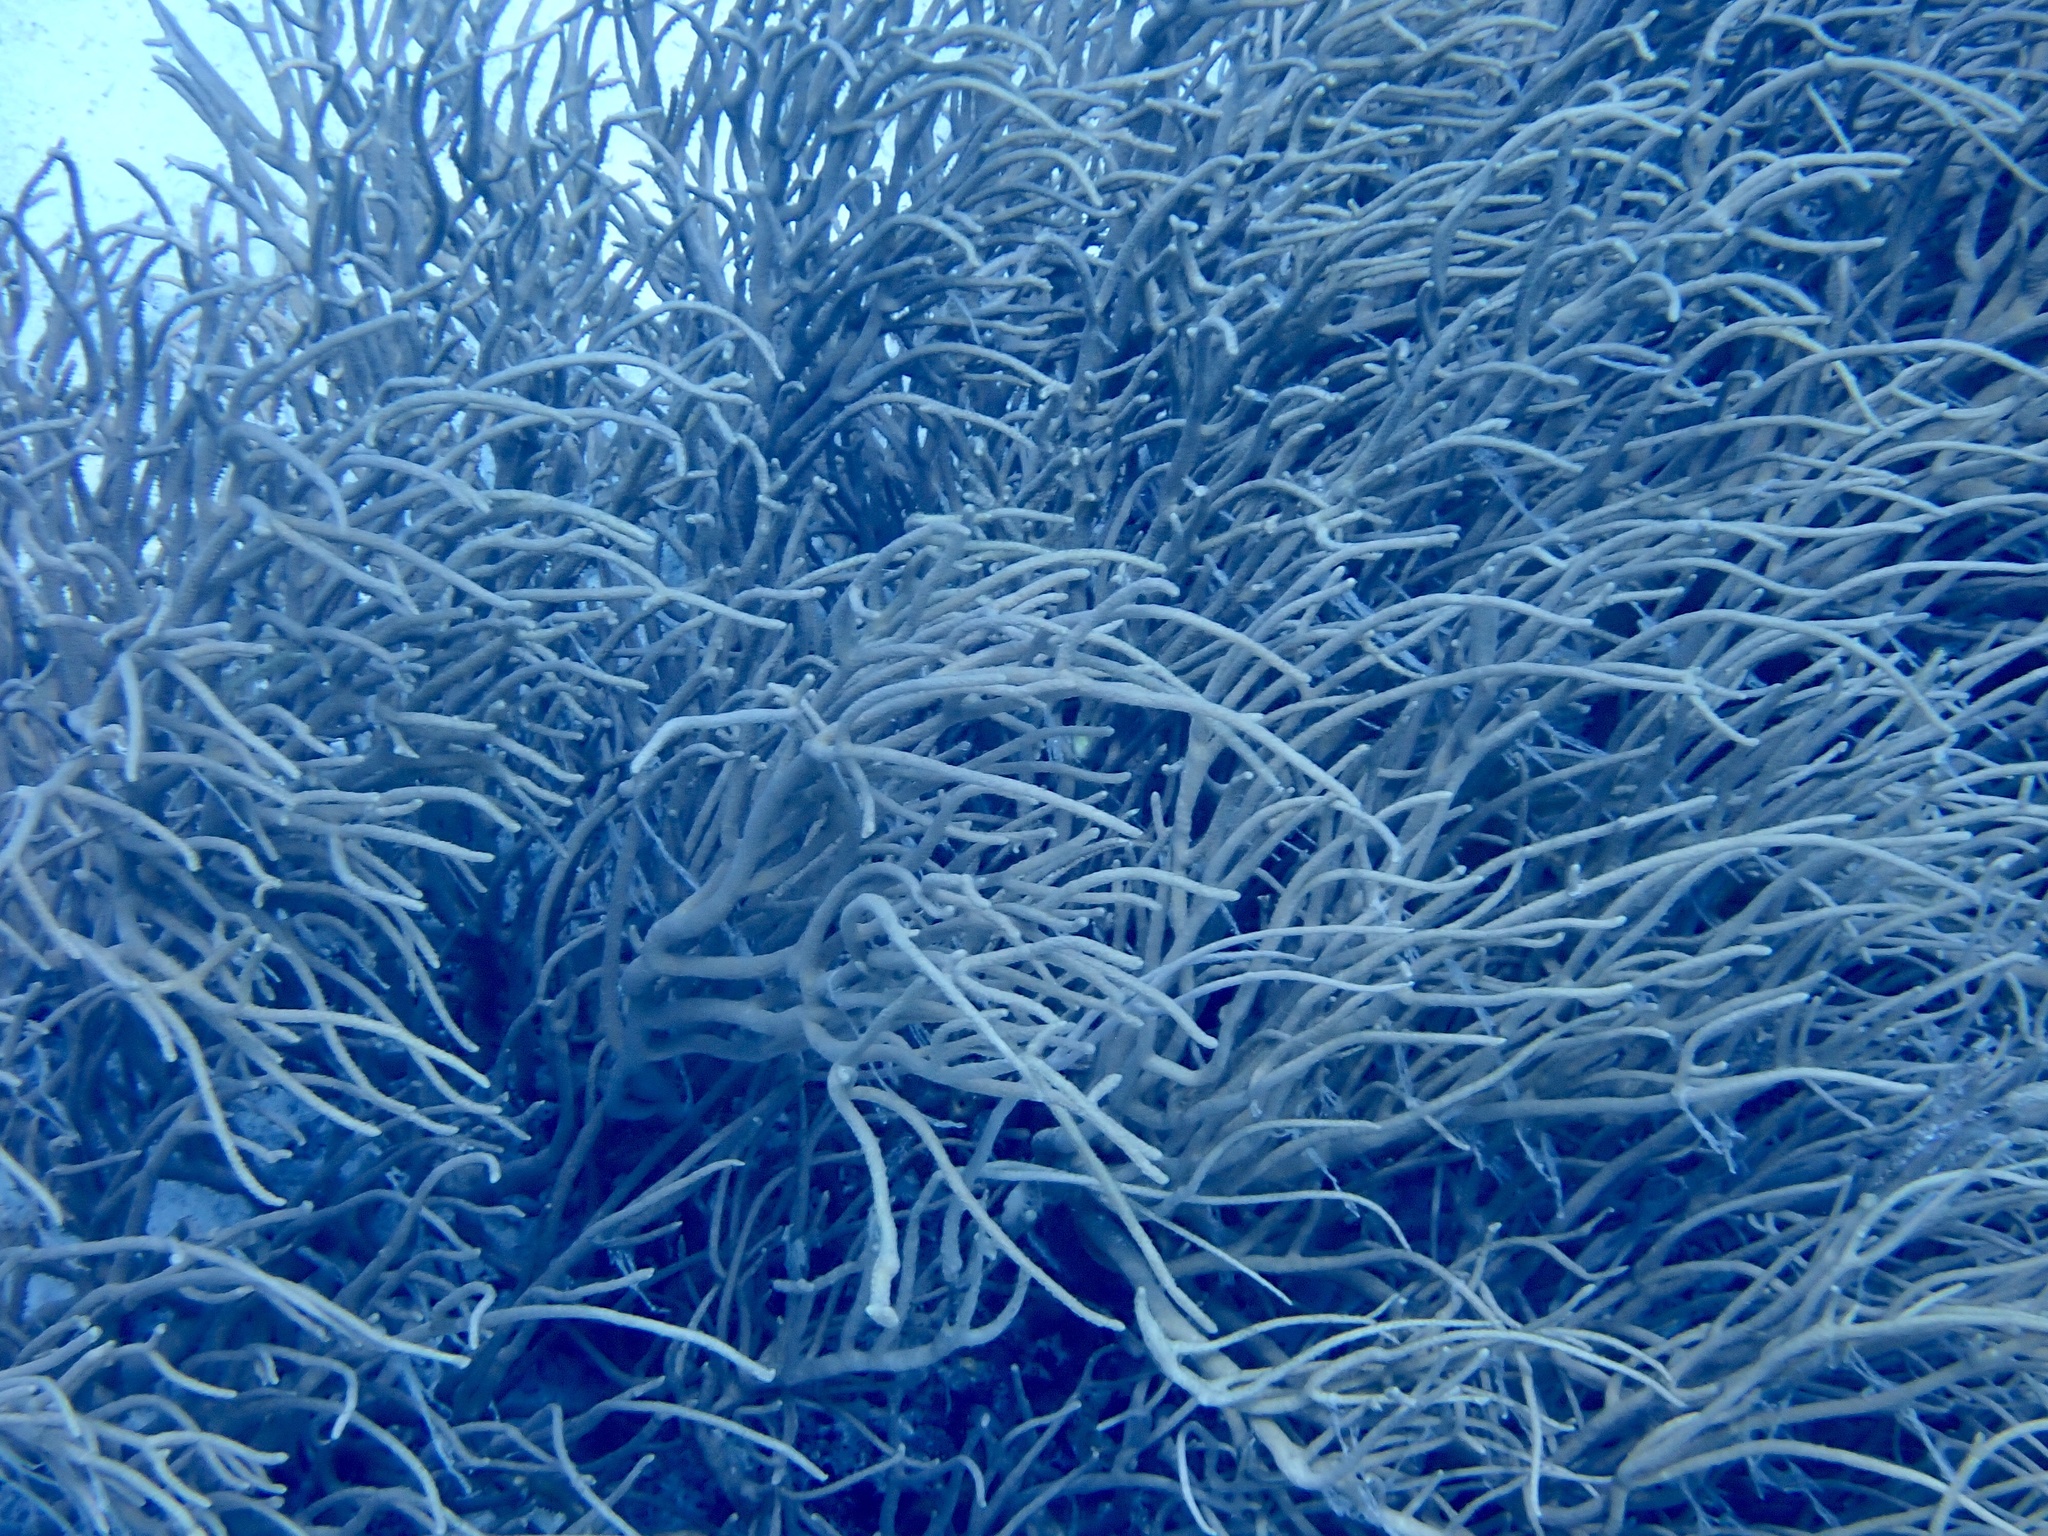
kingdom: Animalia
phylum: Cnidaria
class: Anthozoa
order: Malacalcyonacea
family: Isididae
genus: Rumphella
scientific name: Rumphella torta
